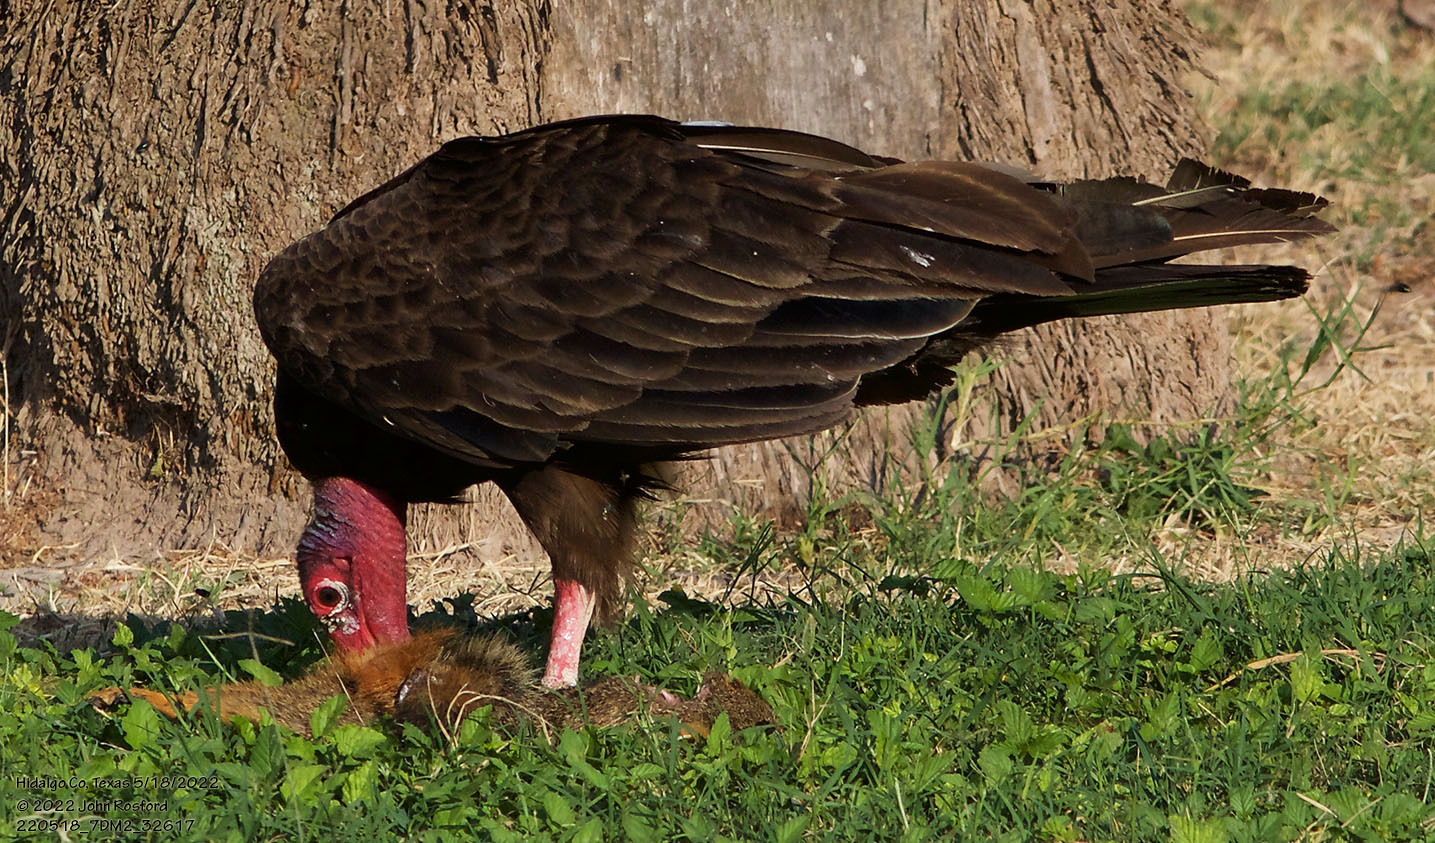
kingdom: Animalia
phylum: Chordata
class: Aves
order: Accipitriformes
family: Cathartidae
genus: Cathartes
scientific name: Cathartes aura
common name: Turkey vulture
